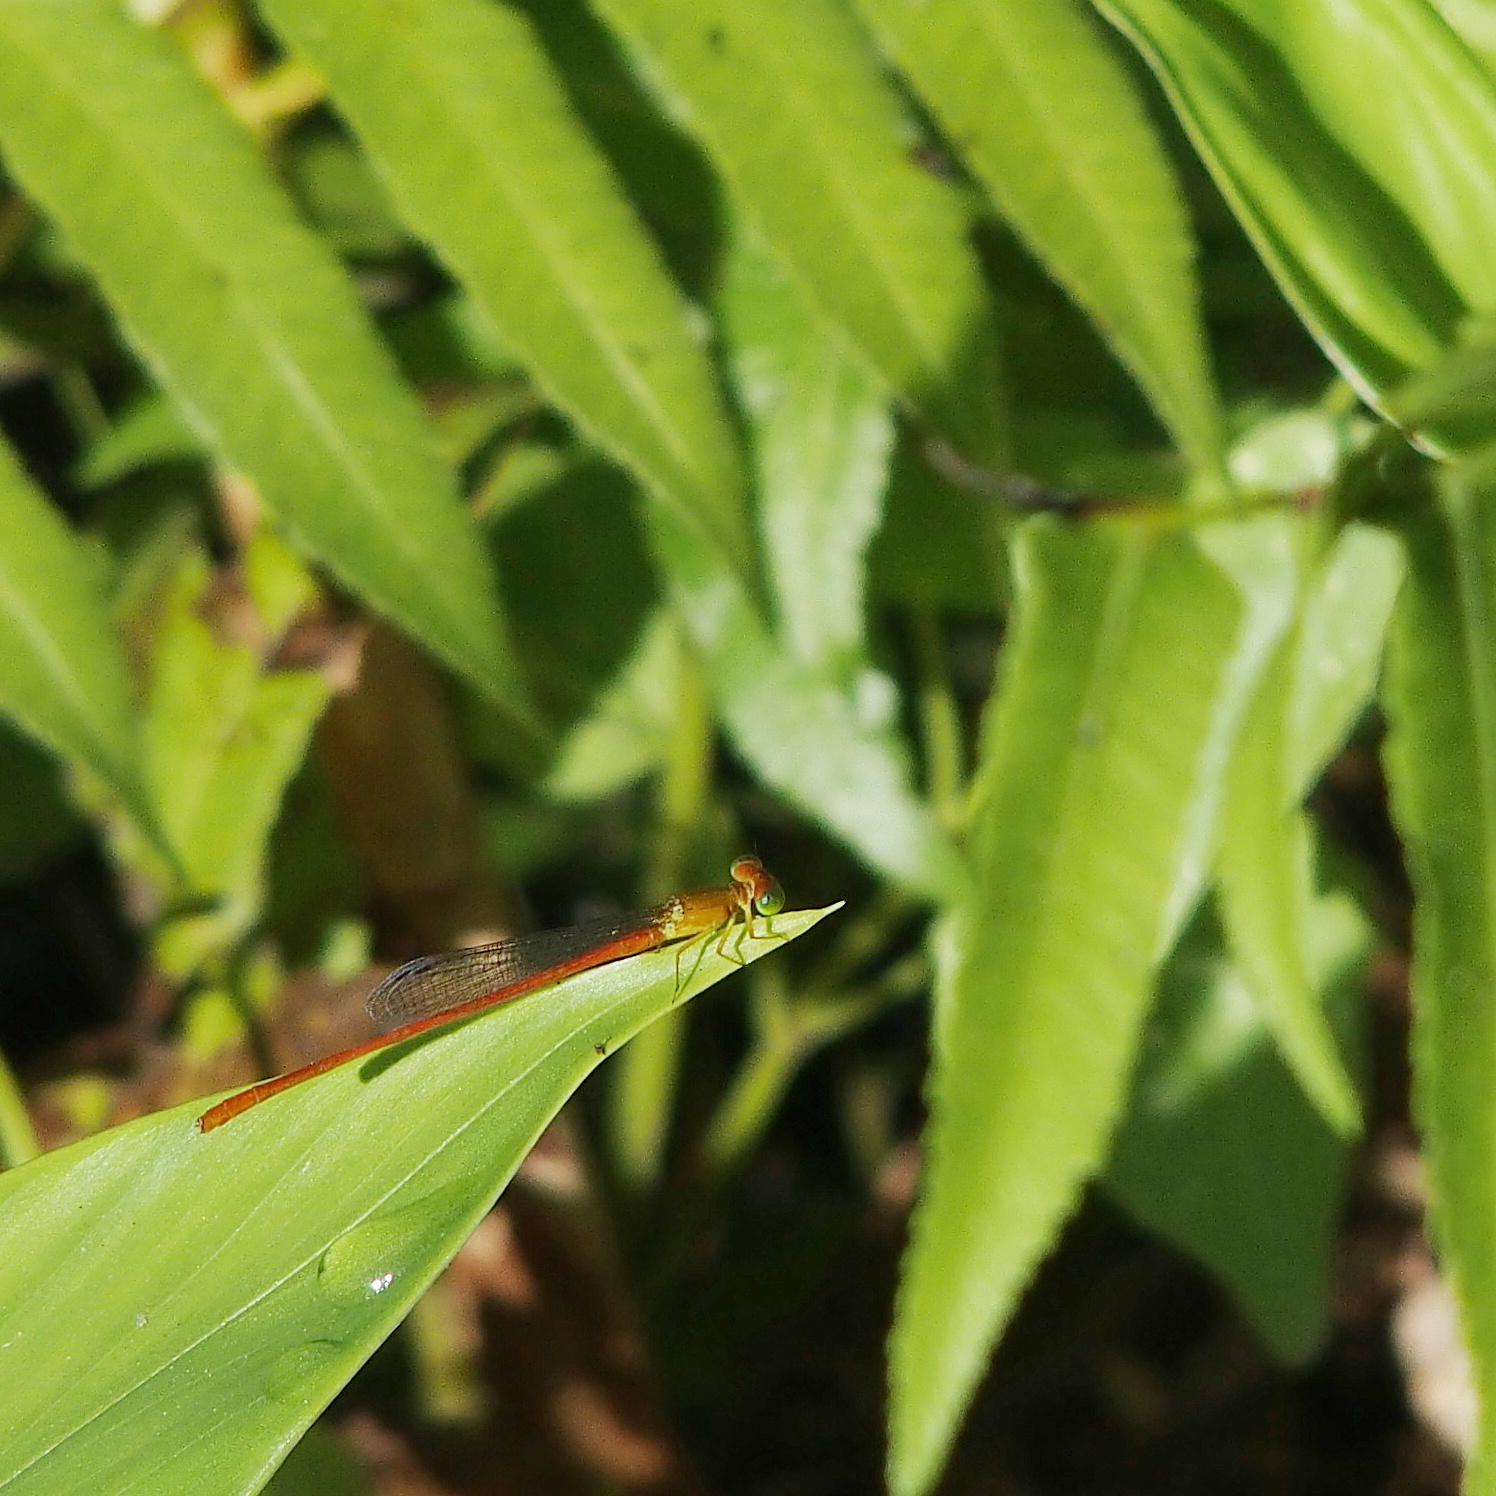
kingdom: Animalia
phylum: Arthropoda
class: Insecta
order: Odonata
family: Coenagrionidae
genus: Ceriagrion
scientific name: Ceriagrion auranticum
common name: Orange-tailed sprite
